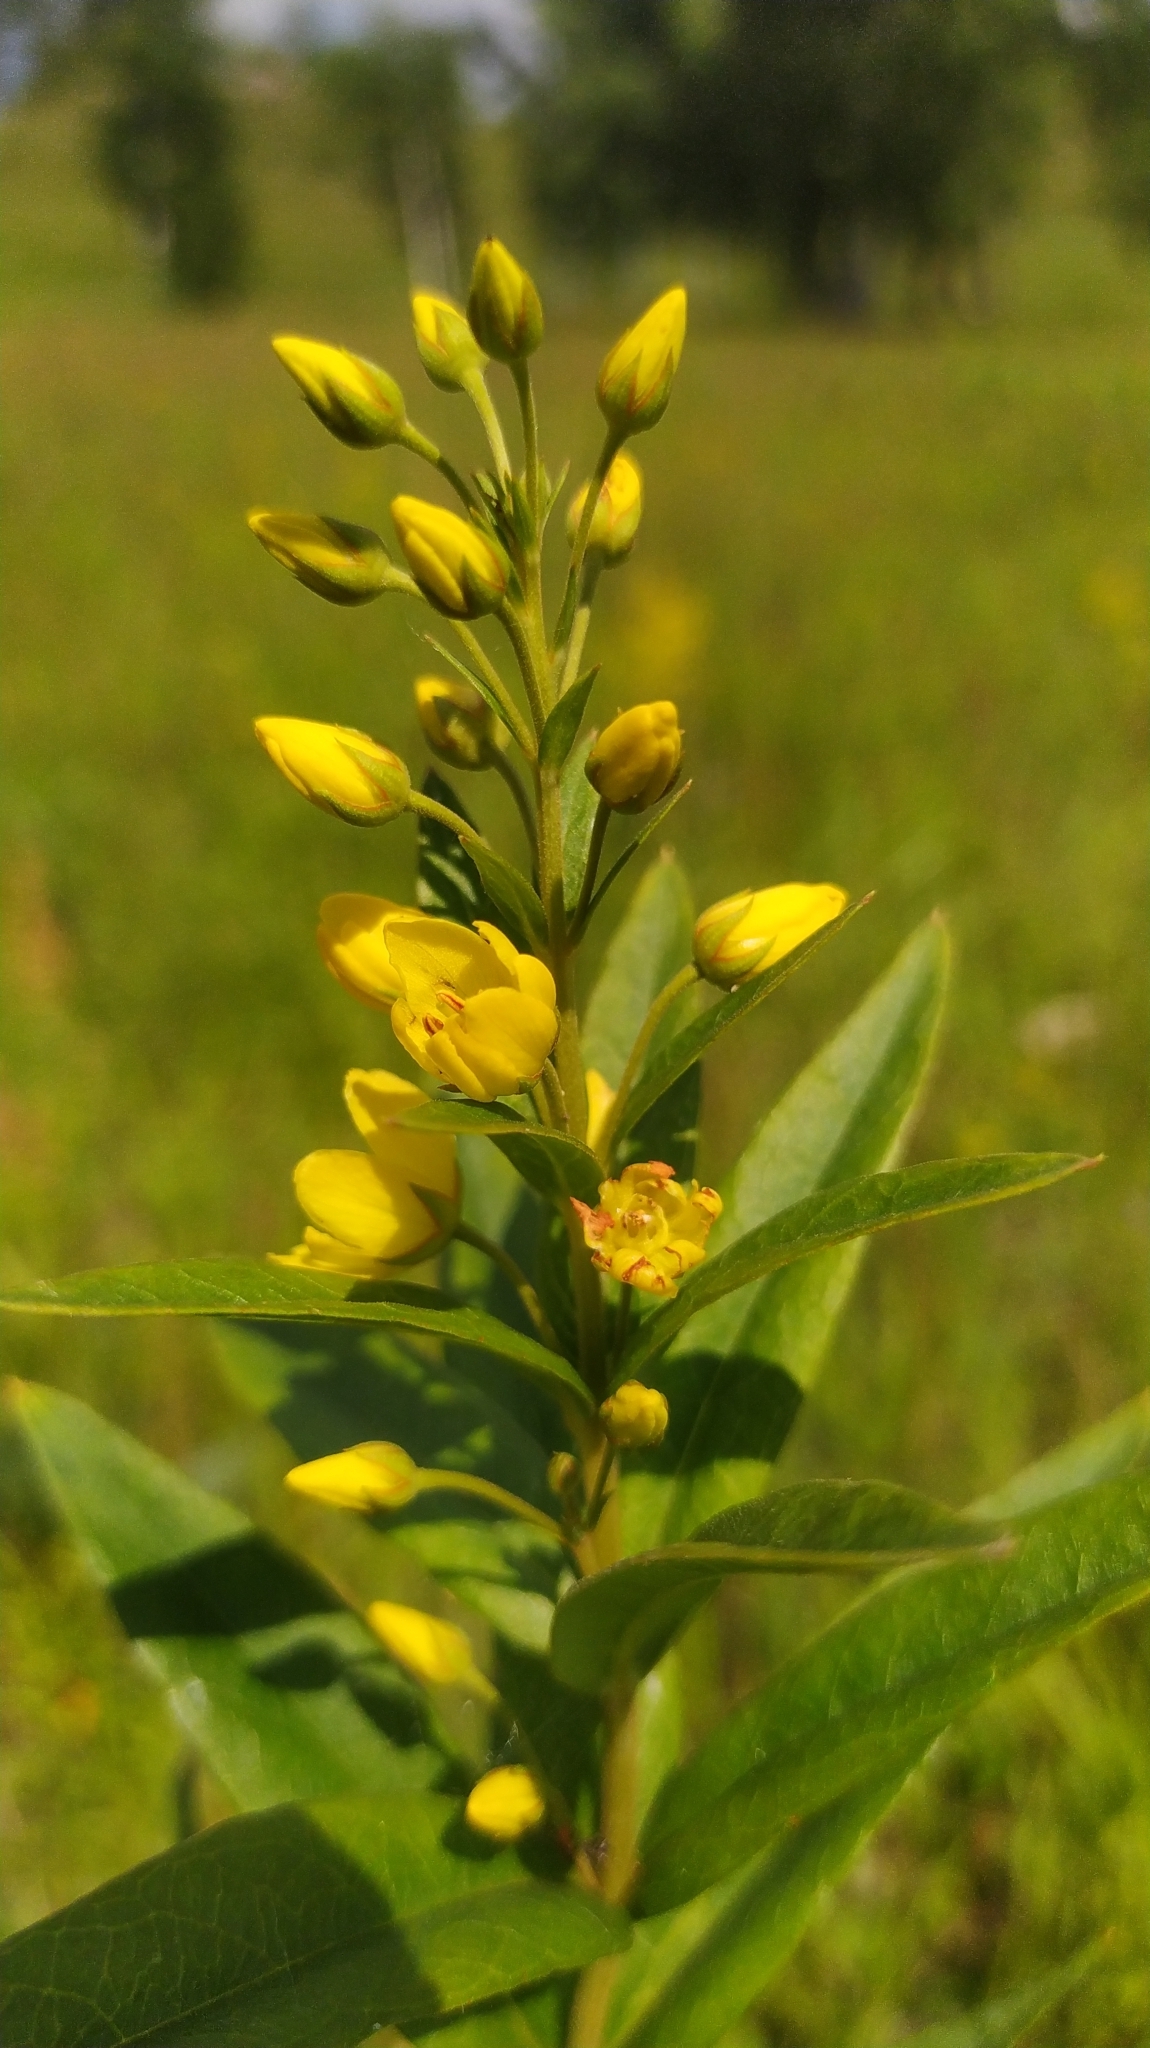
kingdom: Plantae
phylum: Tracheophyta
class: Magnoliopsida
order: Ericales
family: Primulaceae
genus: Lysimachia
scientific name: Lysimachia davurica
